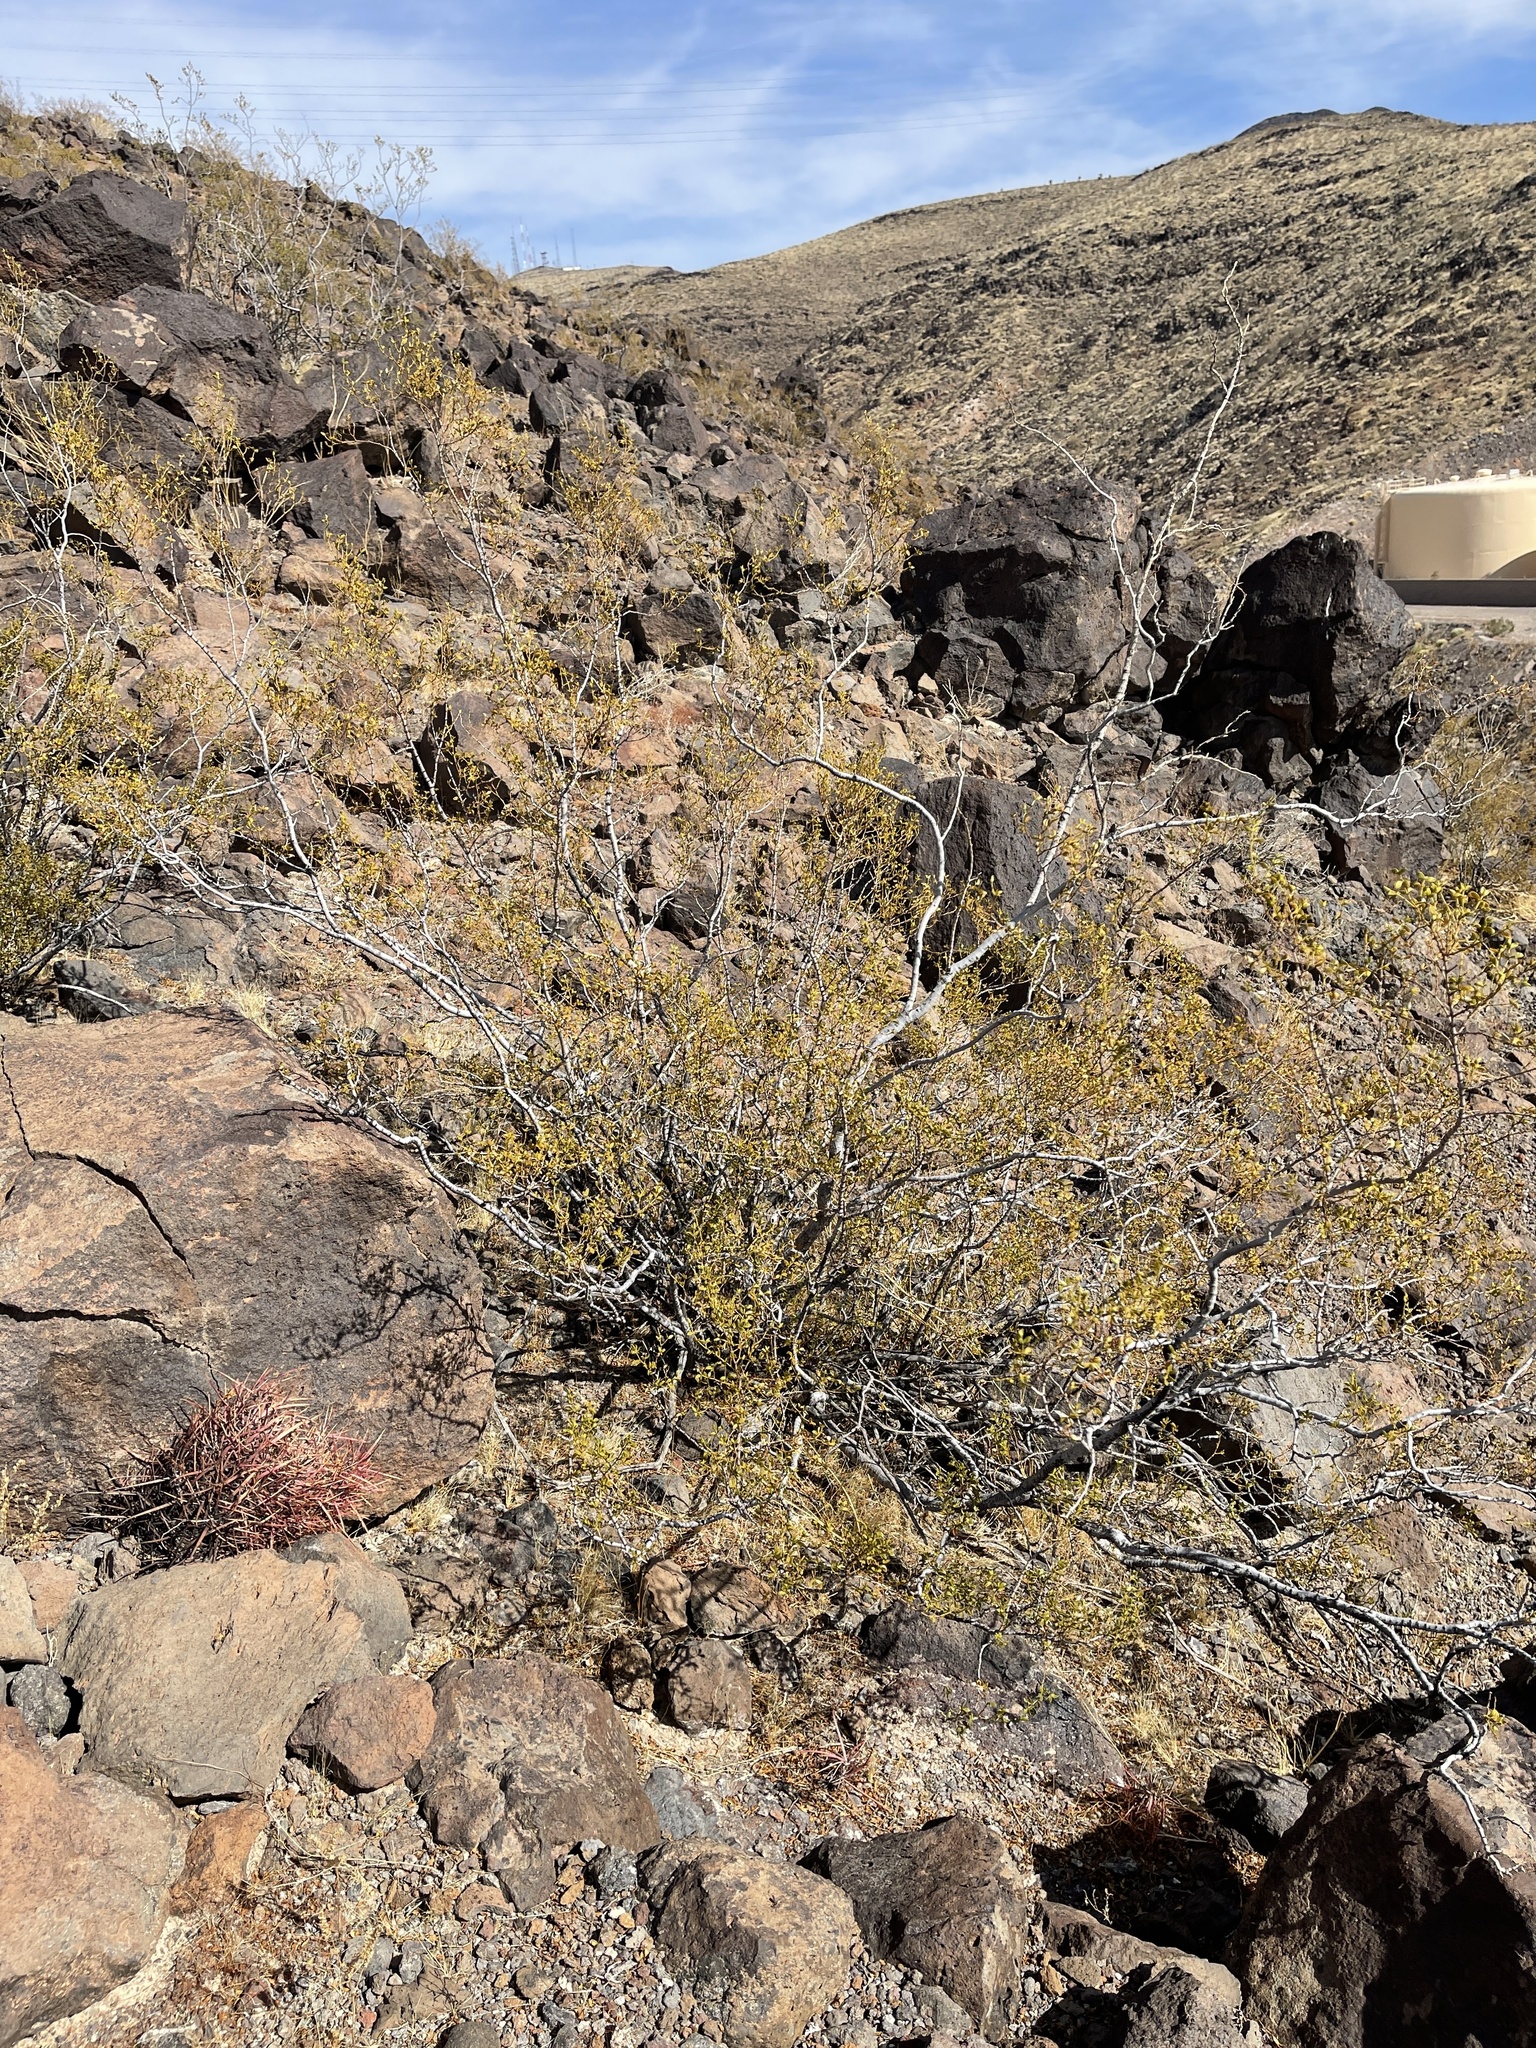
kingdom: Plantae
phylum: Tracheophyta
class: Magnoliopsida
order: Zygophyllales
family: Zygophyllaceae
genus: Larrea
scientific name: Larrea tridentata
